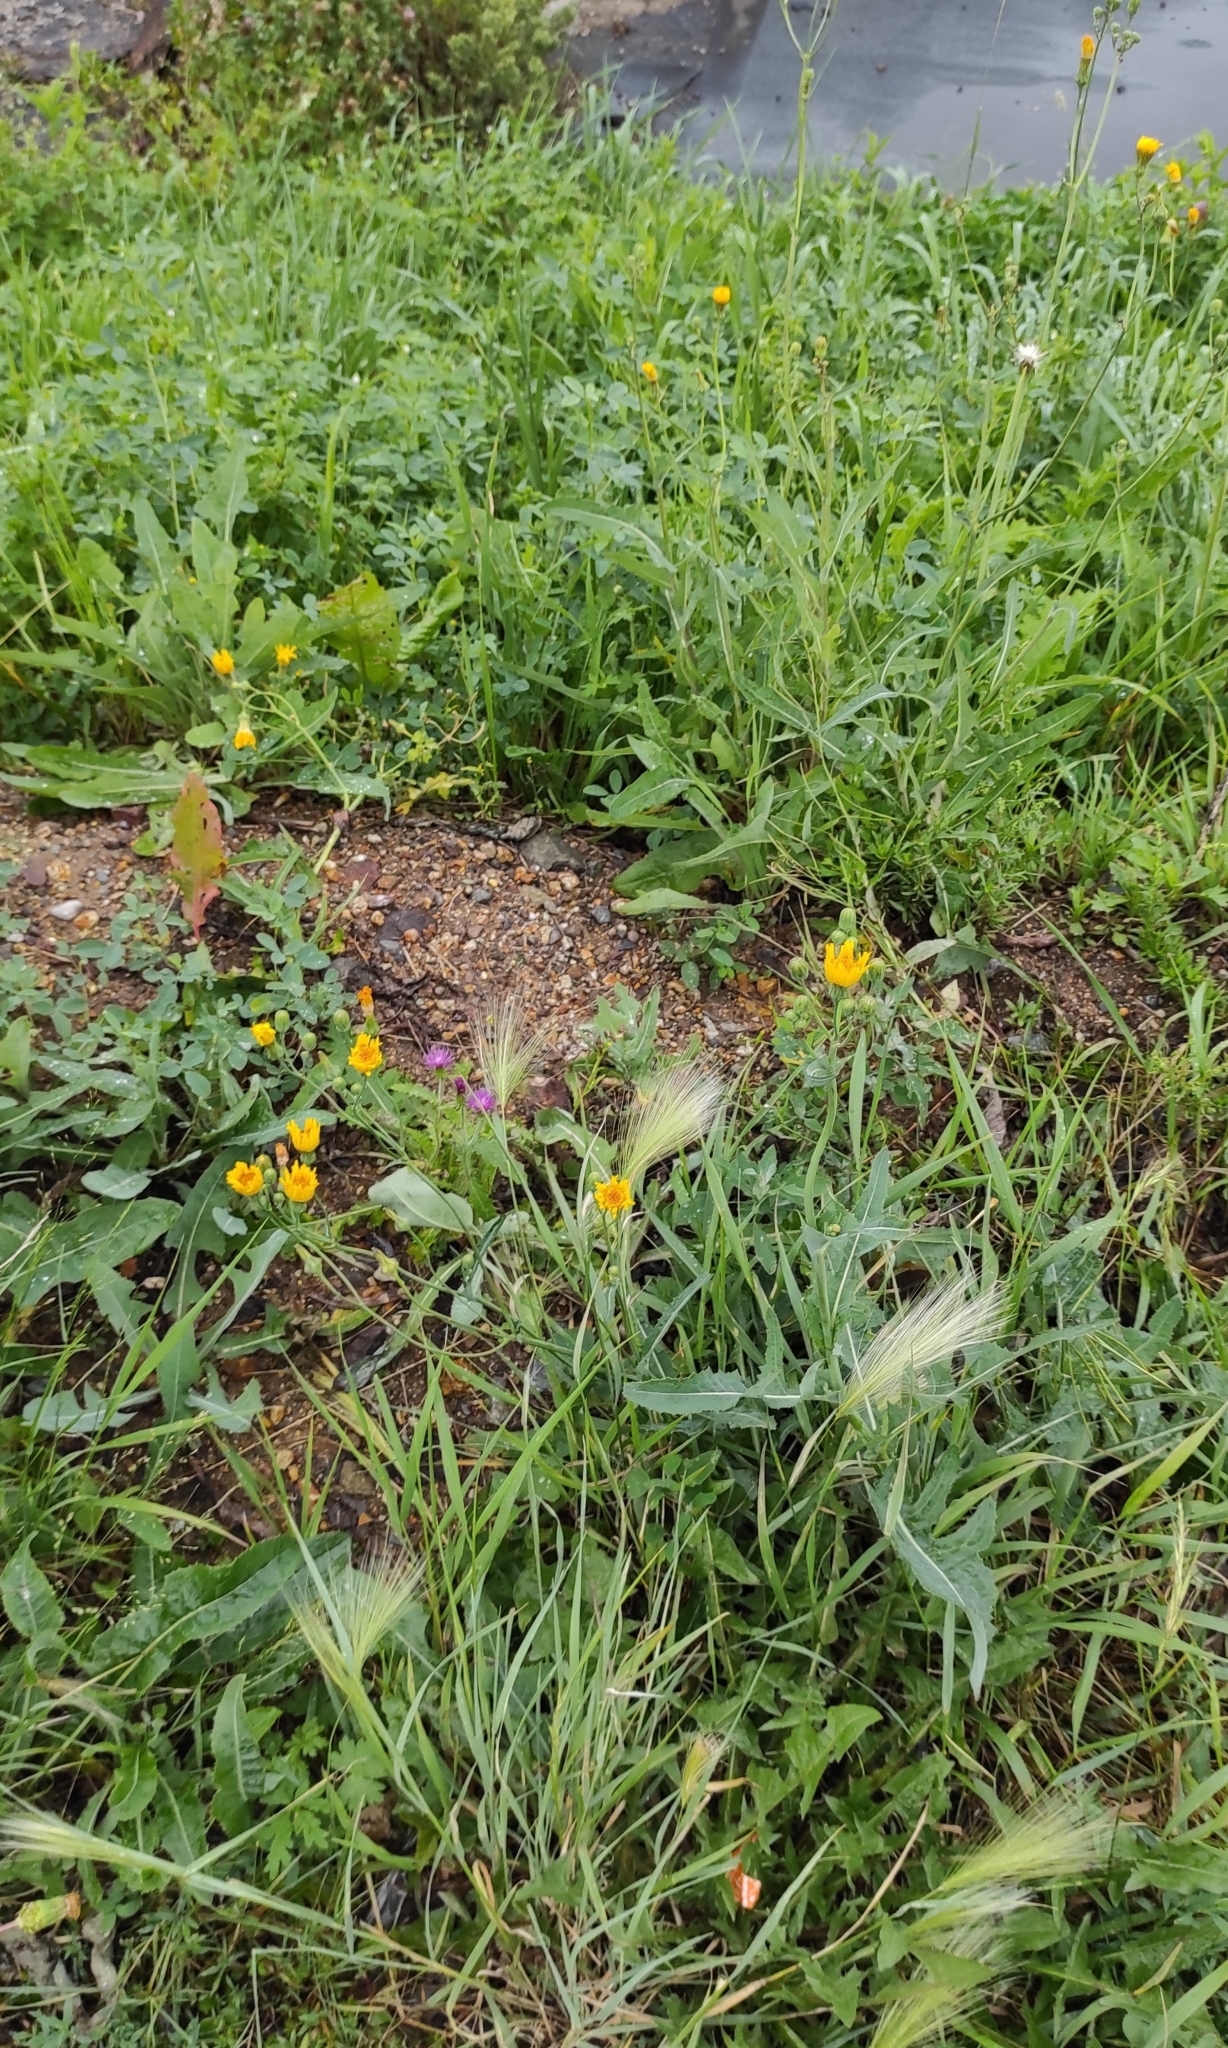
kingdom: Plantae
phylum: Tracheophyta
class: Magnoliopsida
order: Asterales
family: Asteraceae
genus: Sonchus
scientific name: Sonchus arvensis
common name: Perennial sow-thistle
